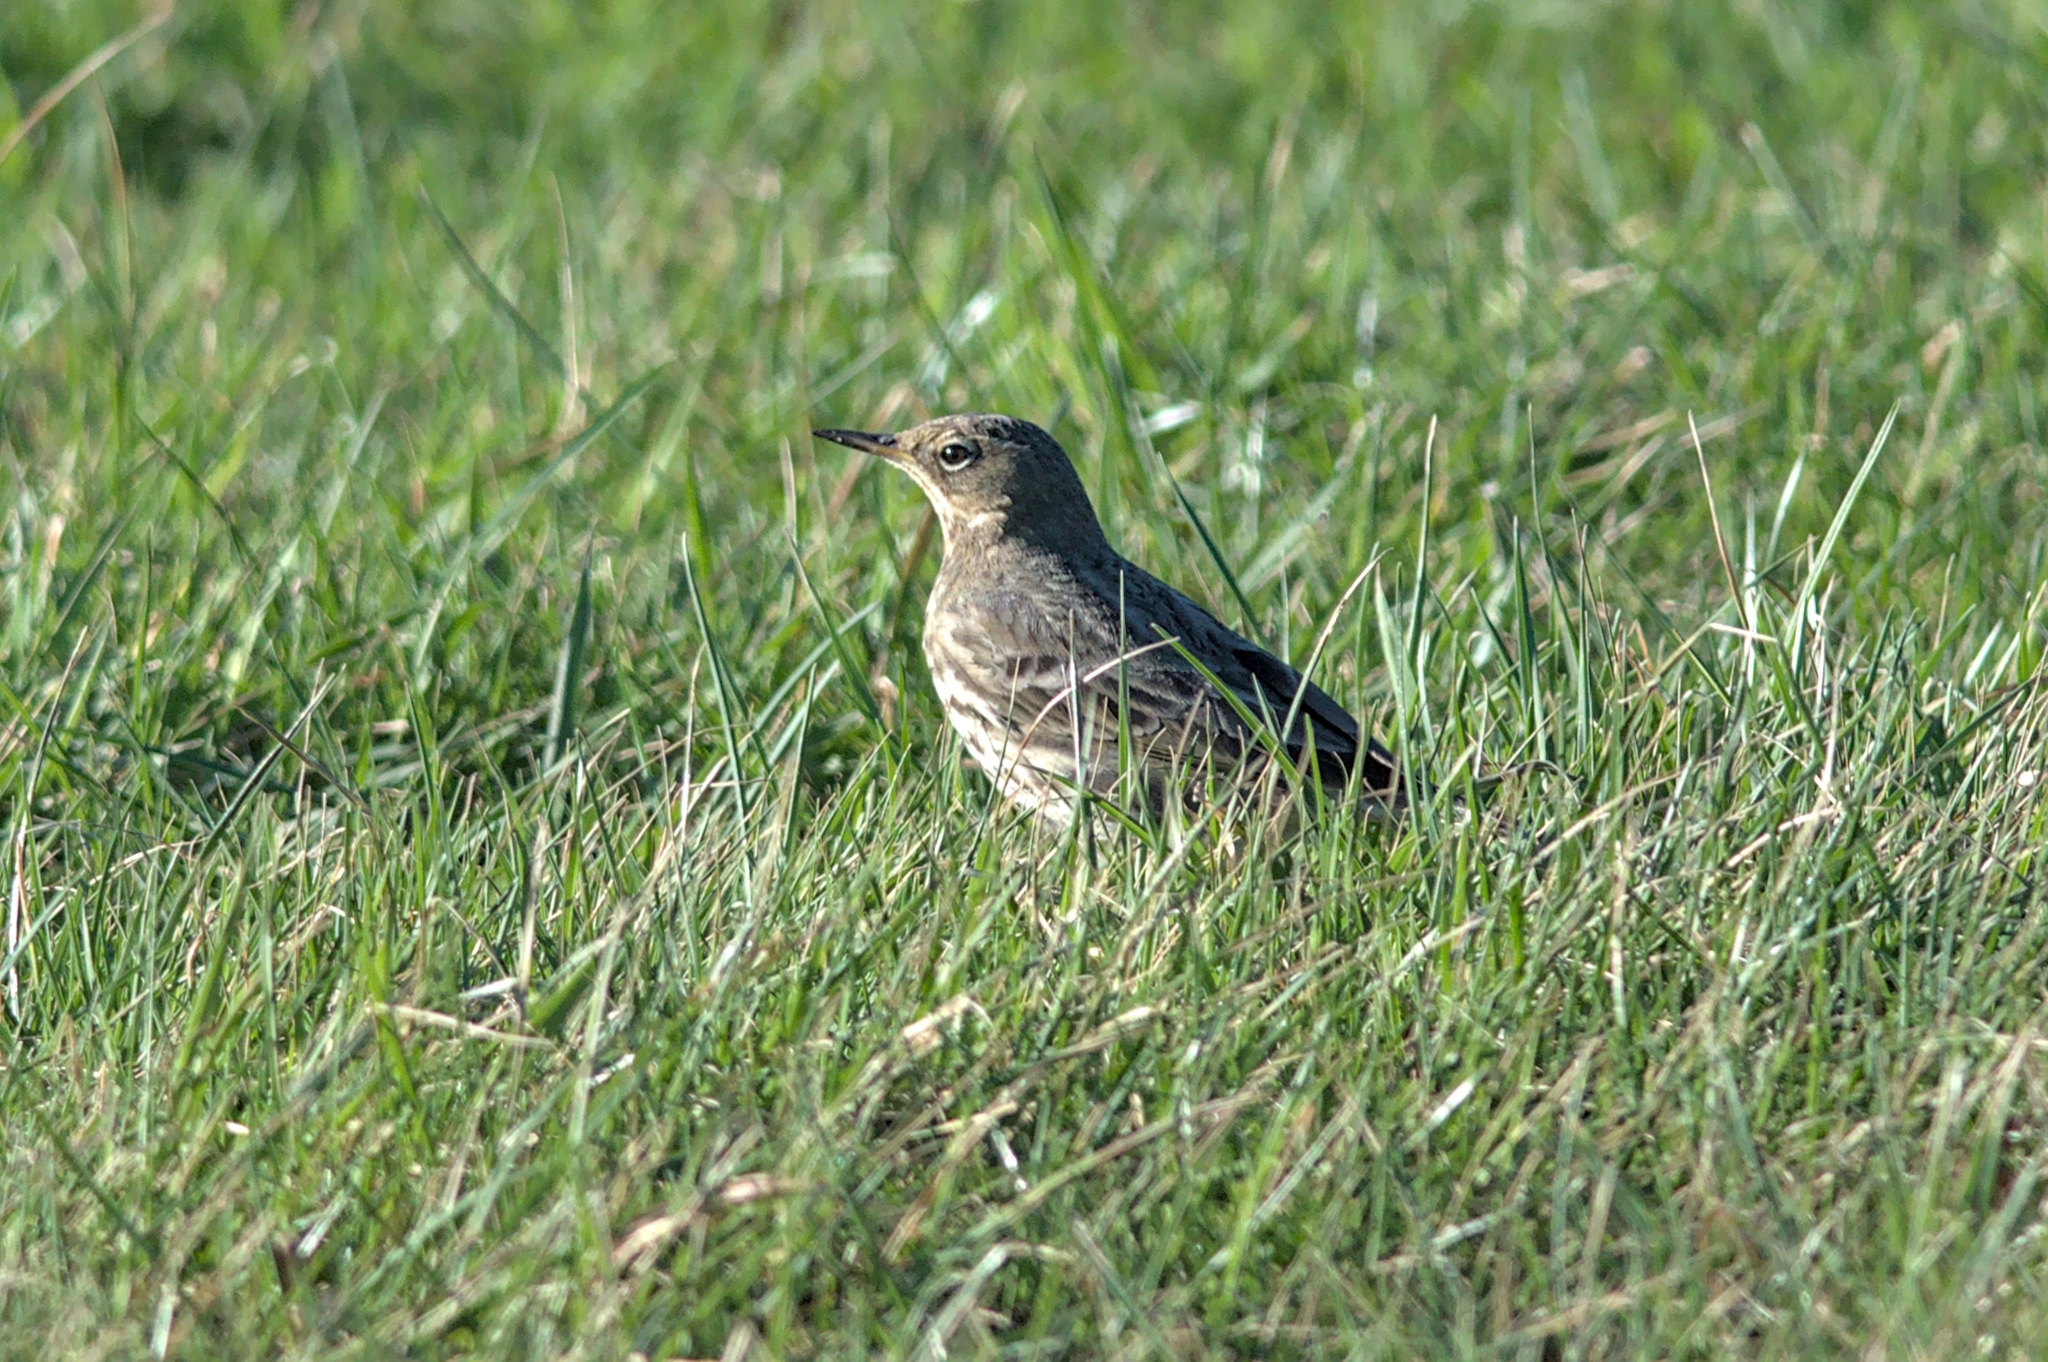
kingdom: Animalia
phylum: Chordata
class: Aves
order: Passeriformes
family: Motacillidae
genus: Anthus
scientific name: Anthus petrosus
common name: Eurasian rock pipit
